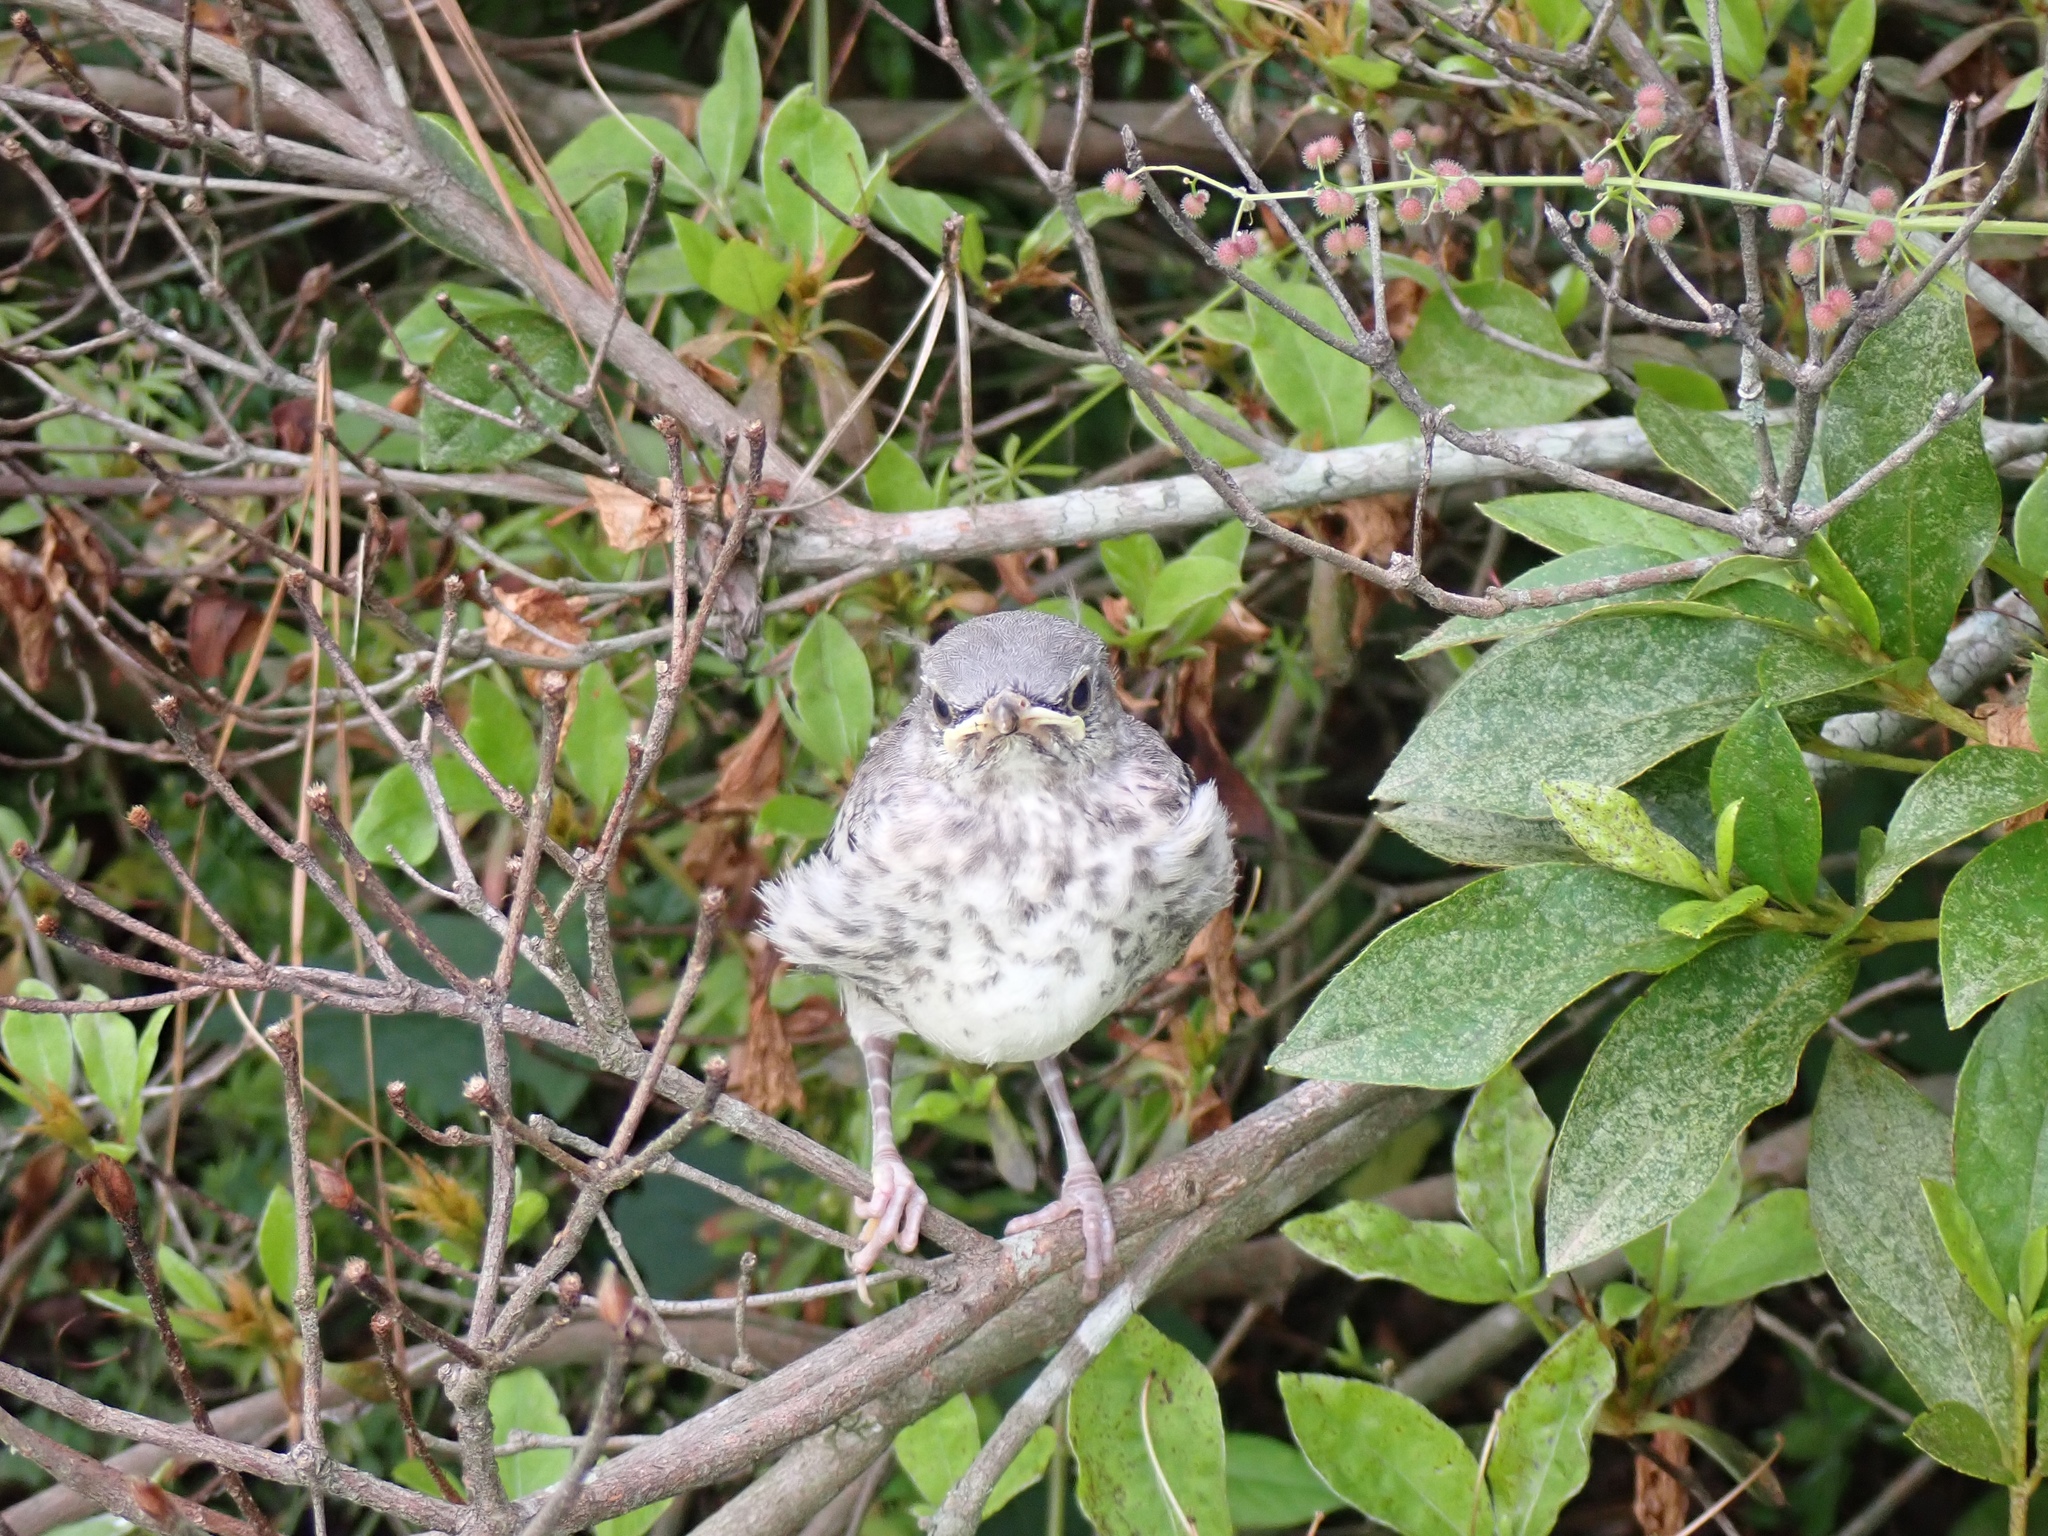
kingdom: Animalia
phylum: Chordata
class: Aves
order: Passeriformes
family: Mimidae
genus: Mimus
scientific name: Mimus polyglottos
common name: Northern mockingbird
